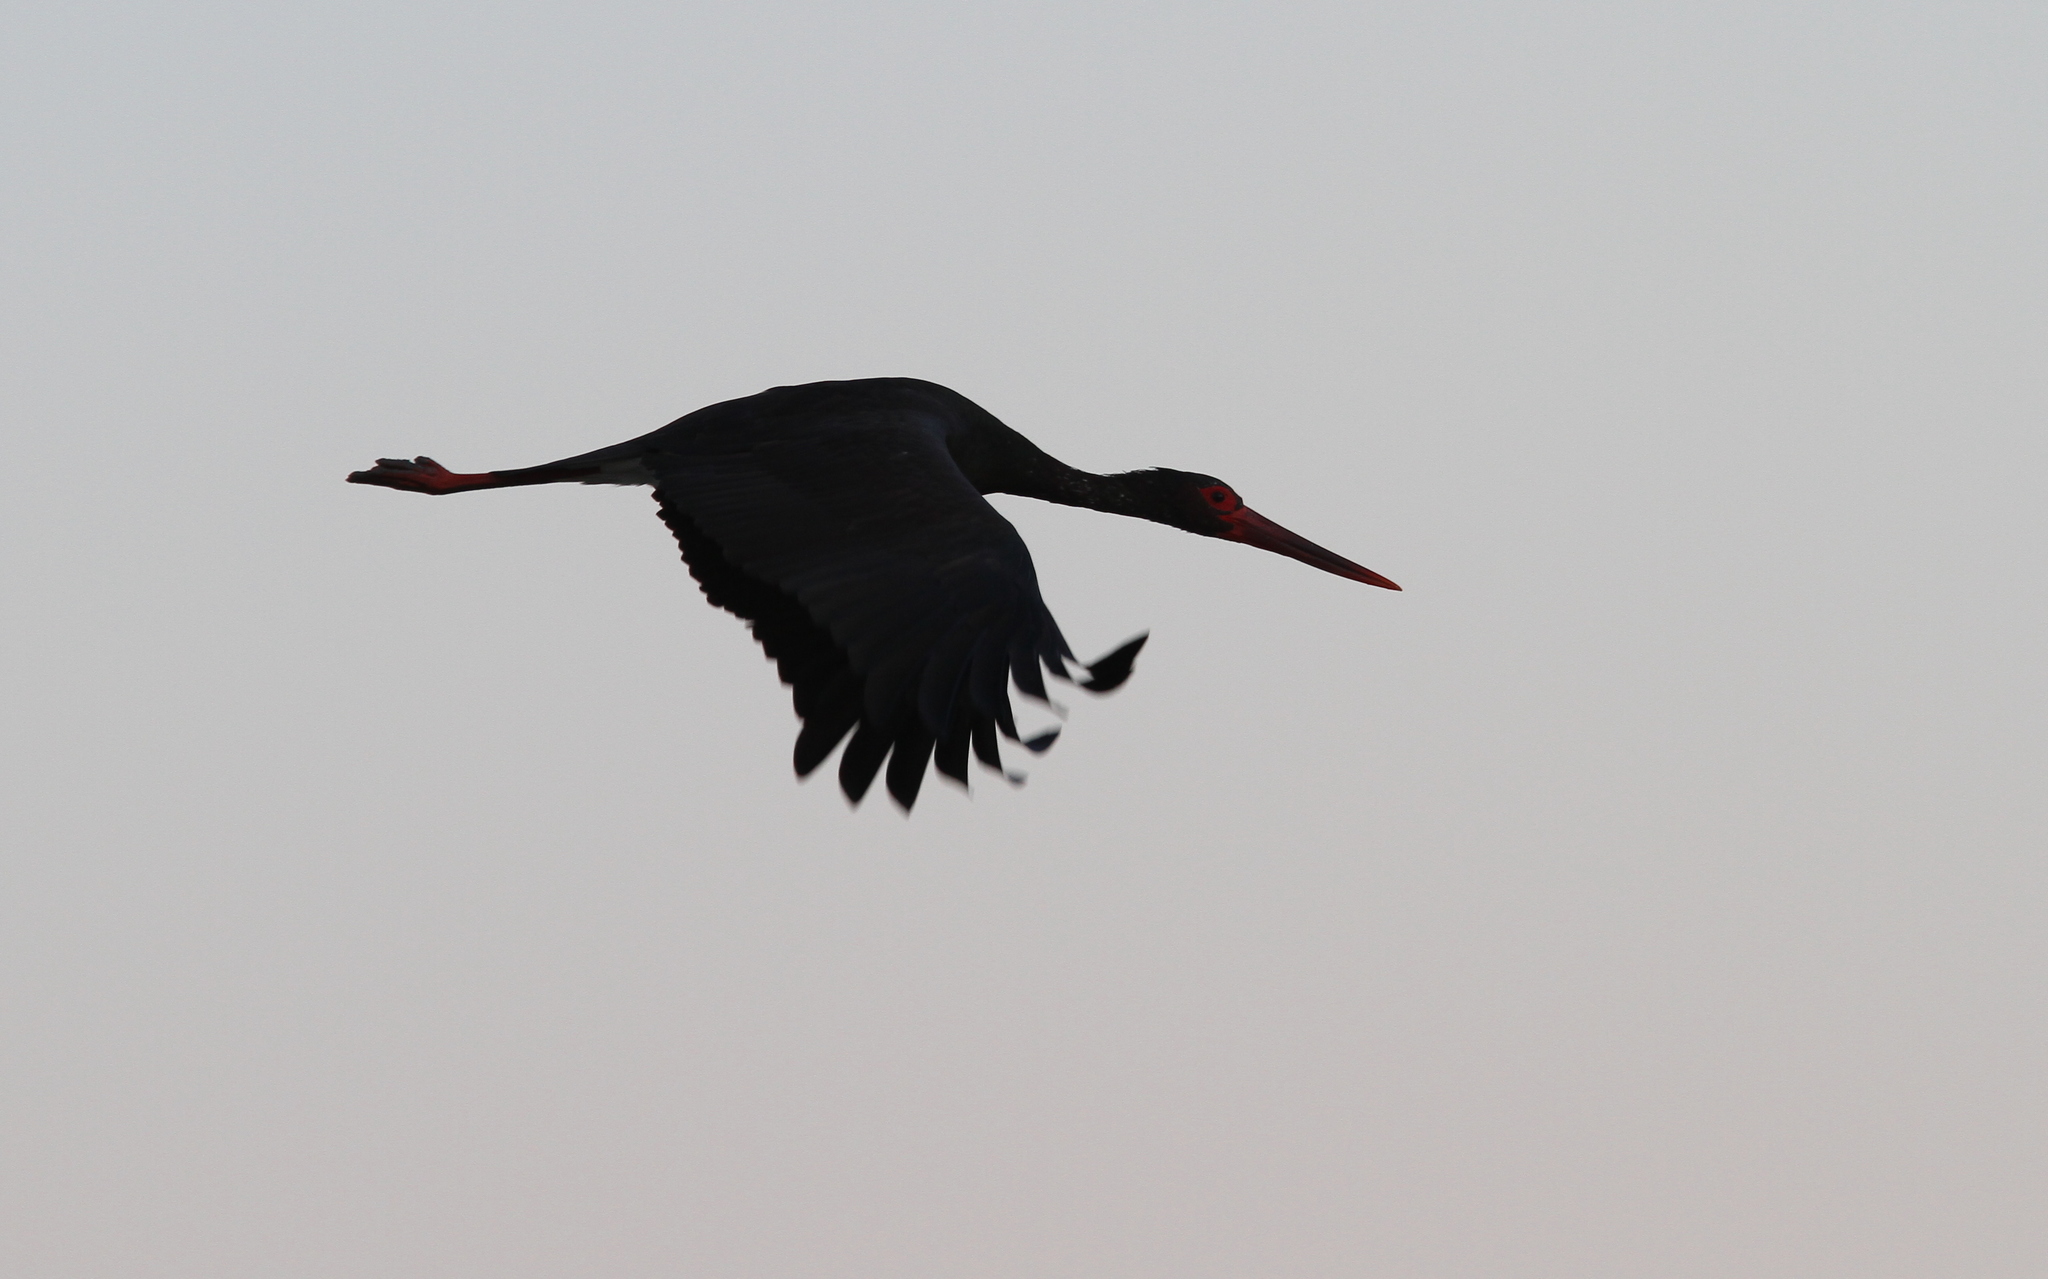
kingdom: Animalia
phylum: Chordata
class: Aves
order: Ciconiiformes
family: Ciconiidae
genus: Ciconia
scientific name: Ciconia nigra
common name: Black stork
